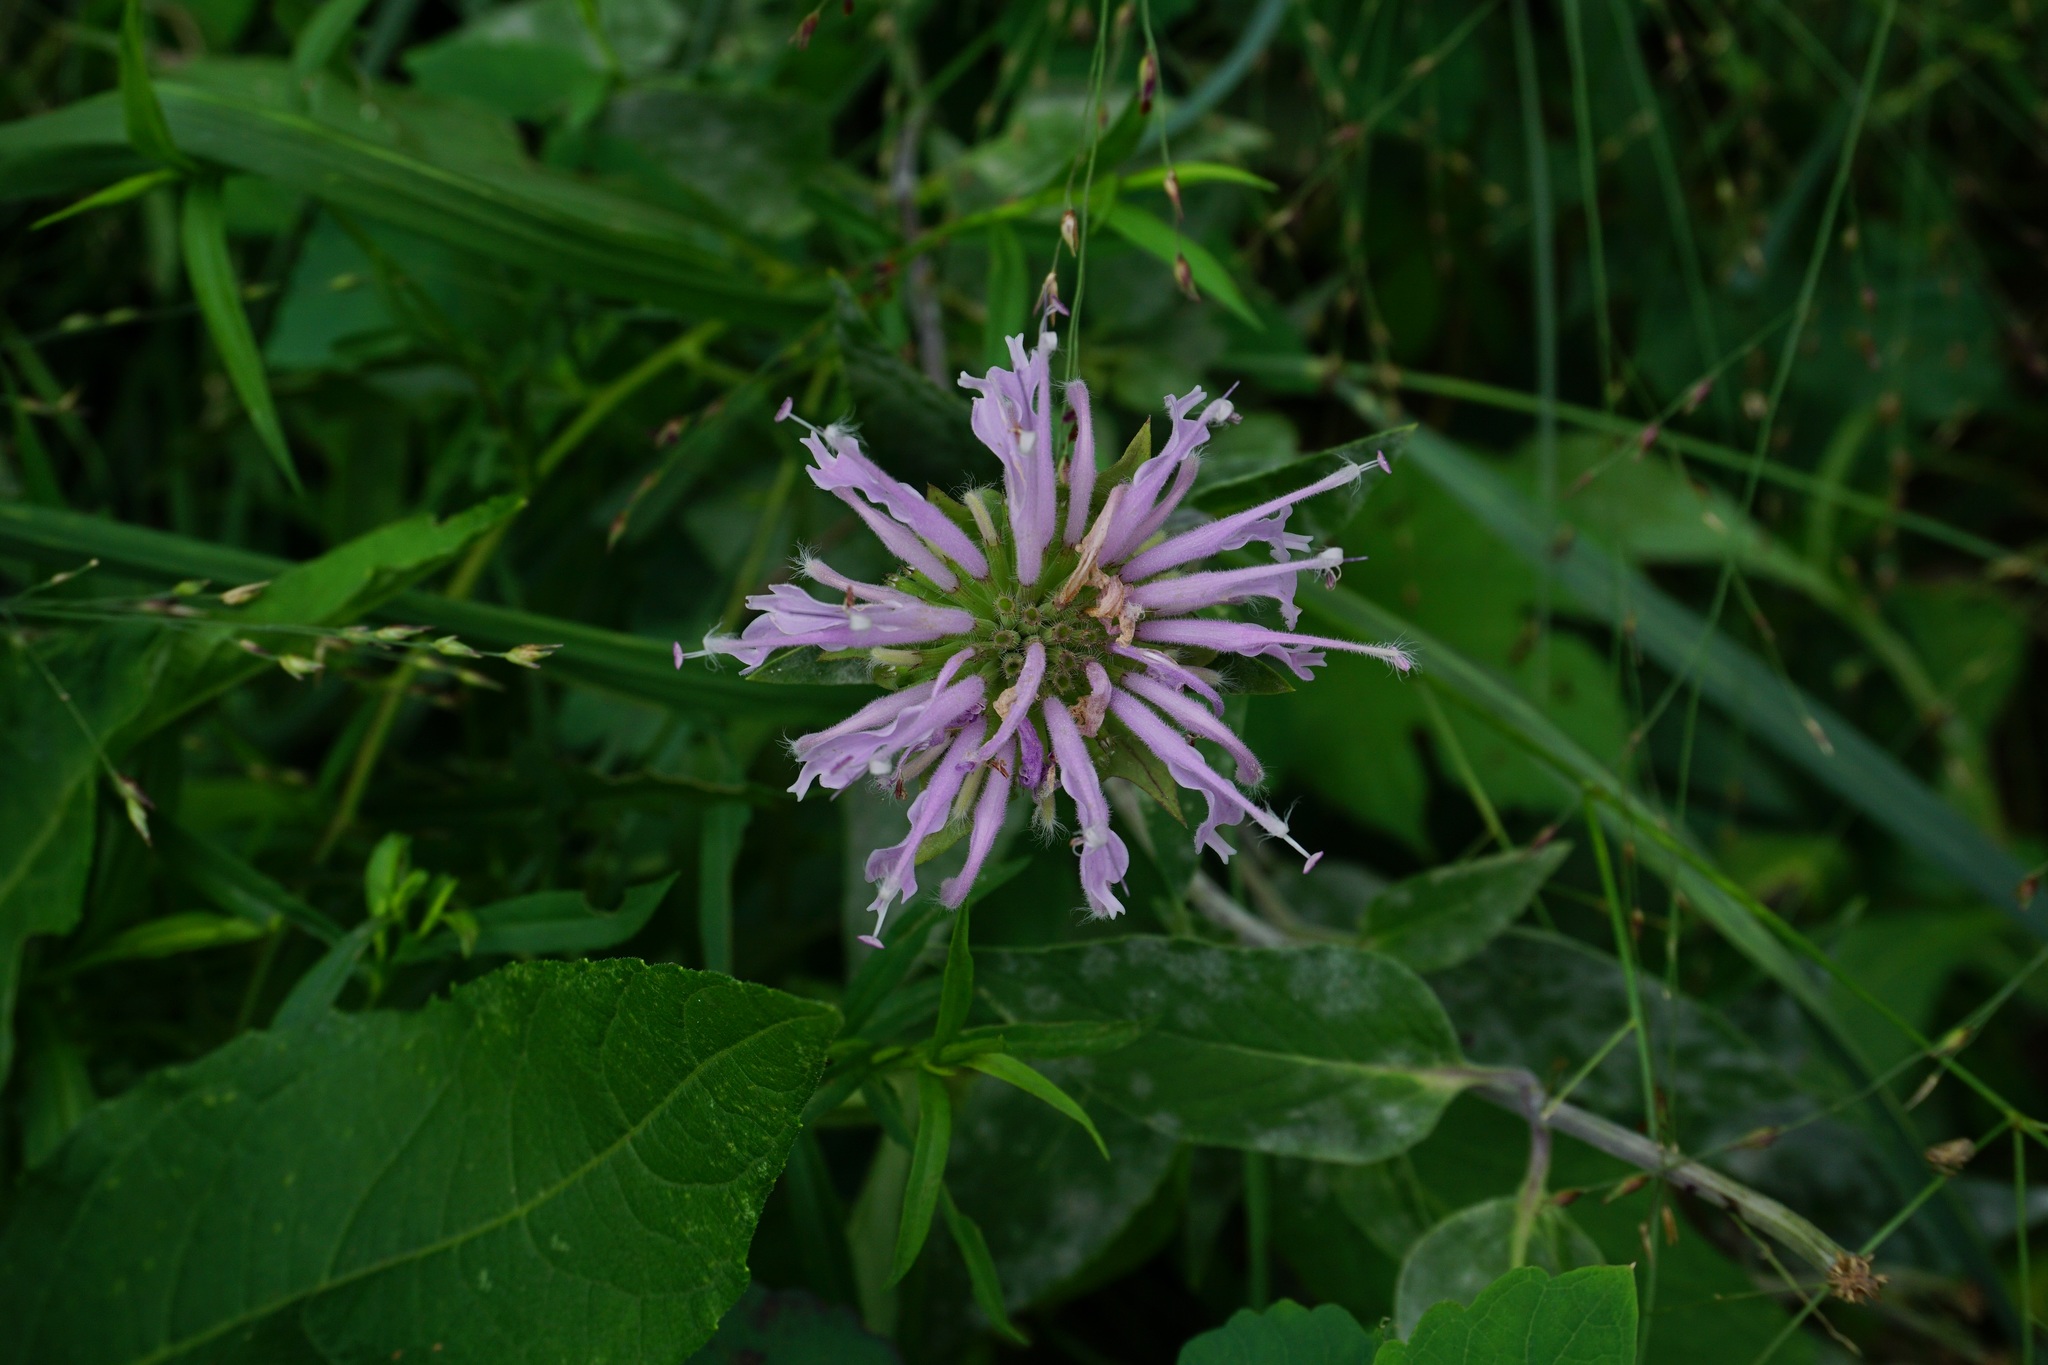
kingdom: Plantae
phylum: Tracheophyta
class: Magnoliopsida
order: Lamiales
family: Lamiaceae
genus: Monarda
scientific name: Monarda fistulosa
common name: Purple beebalm
